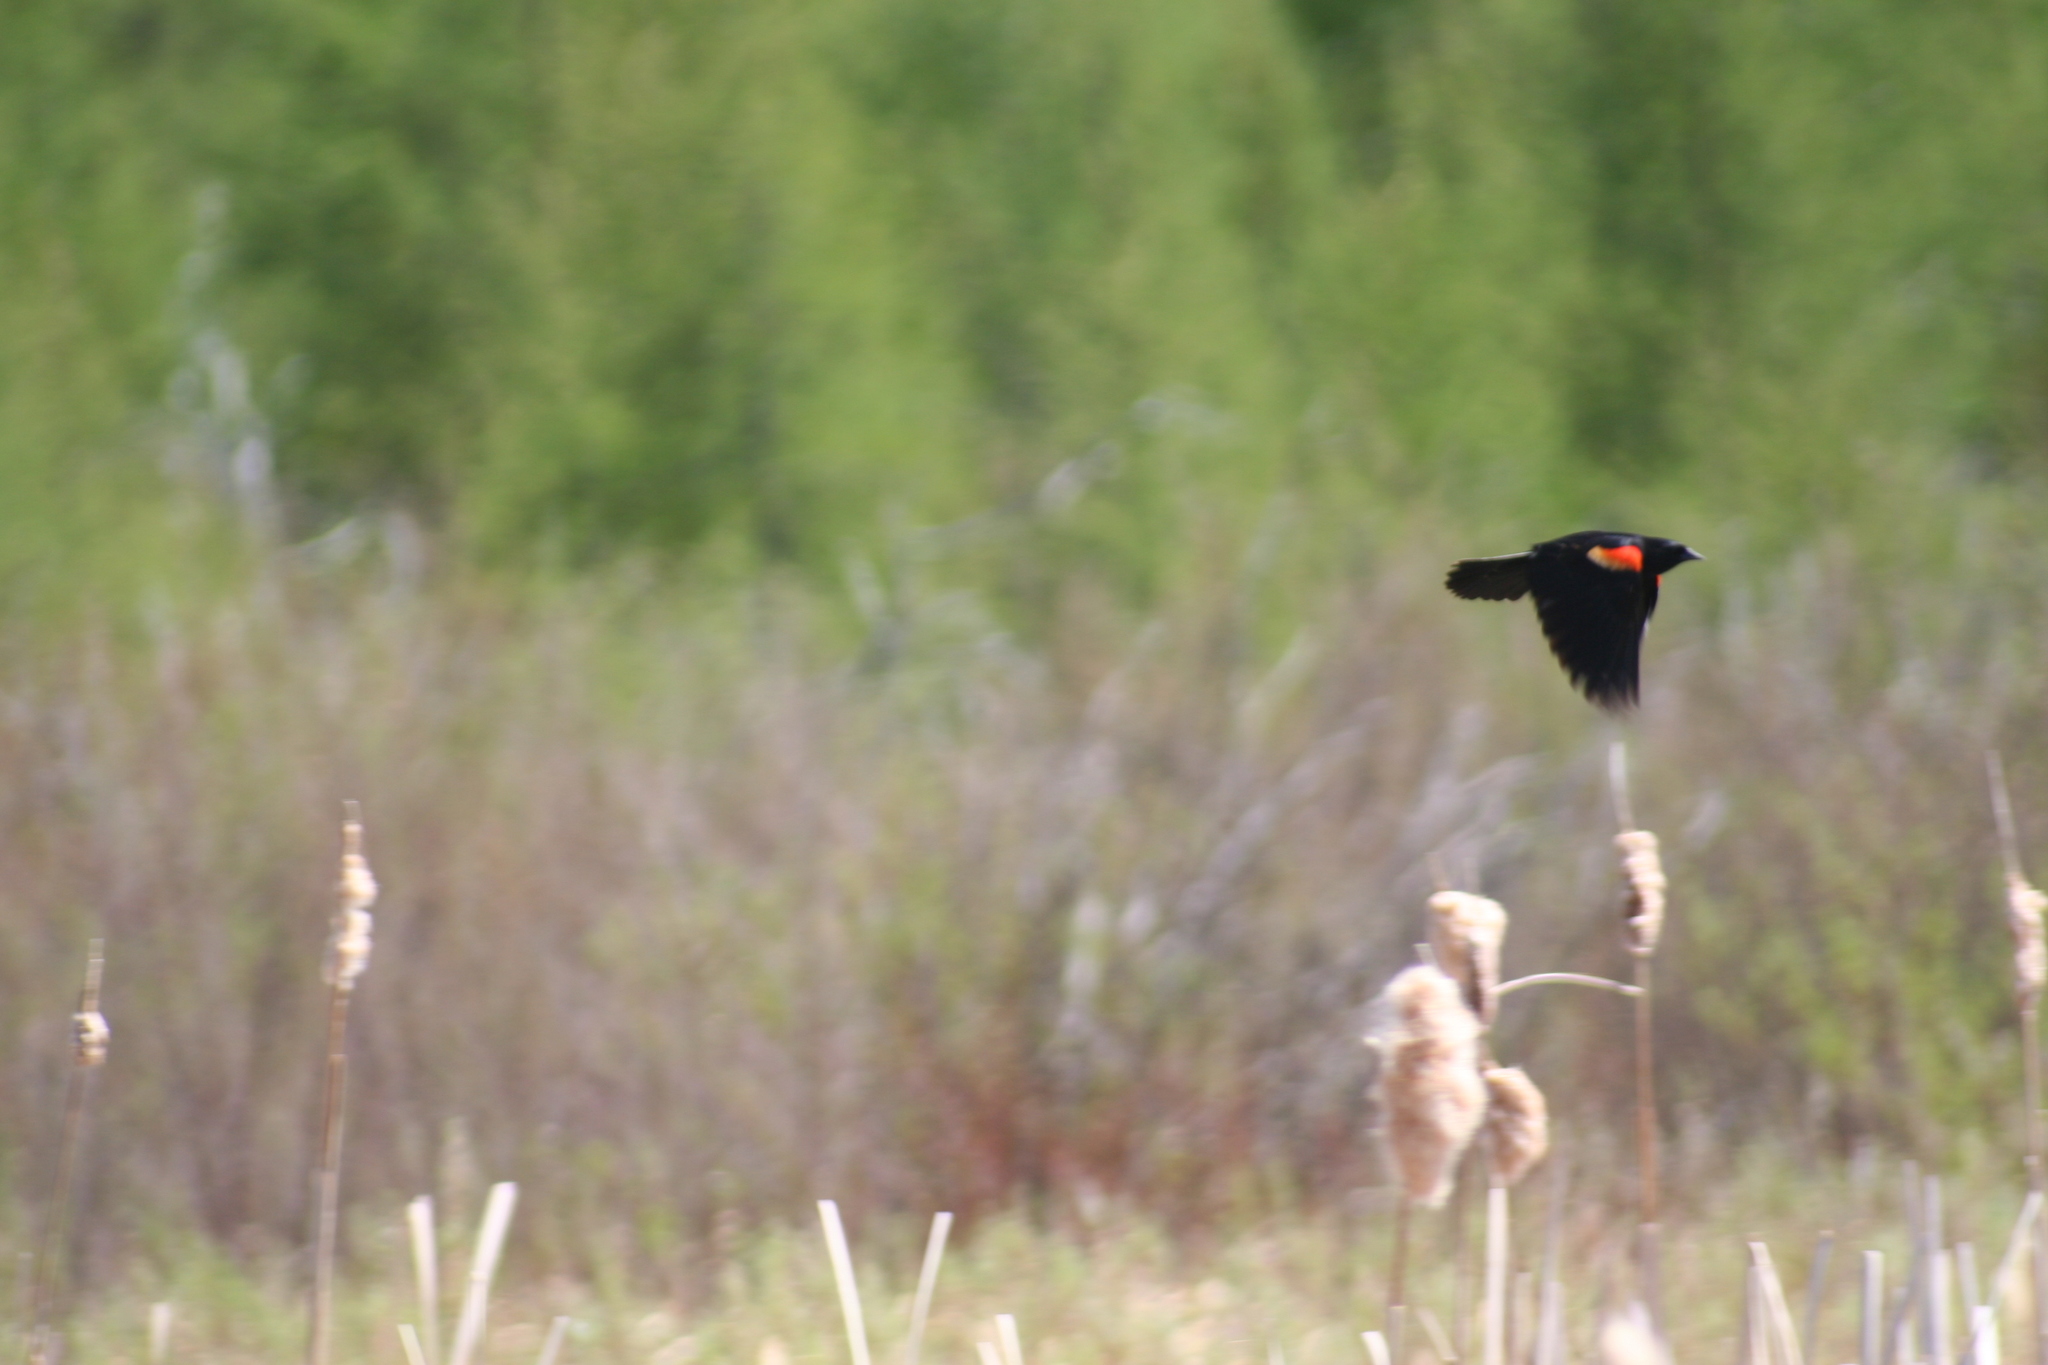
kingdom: Animalia
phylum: Chordata
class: Aves
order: Passeriformes
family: Icteridae
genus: Agelaius
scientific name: Agelaius phoeniceus
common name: Red-winged blackbird
